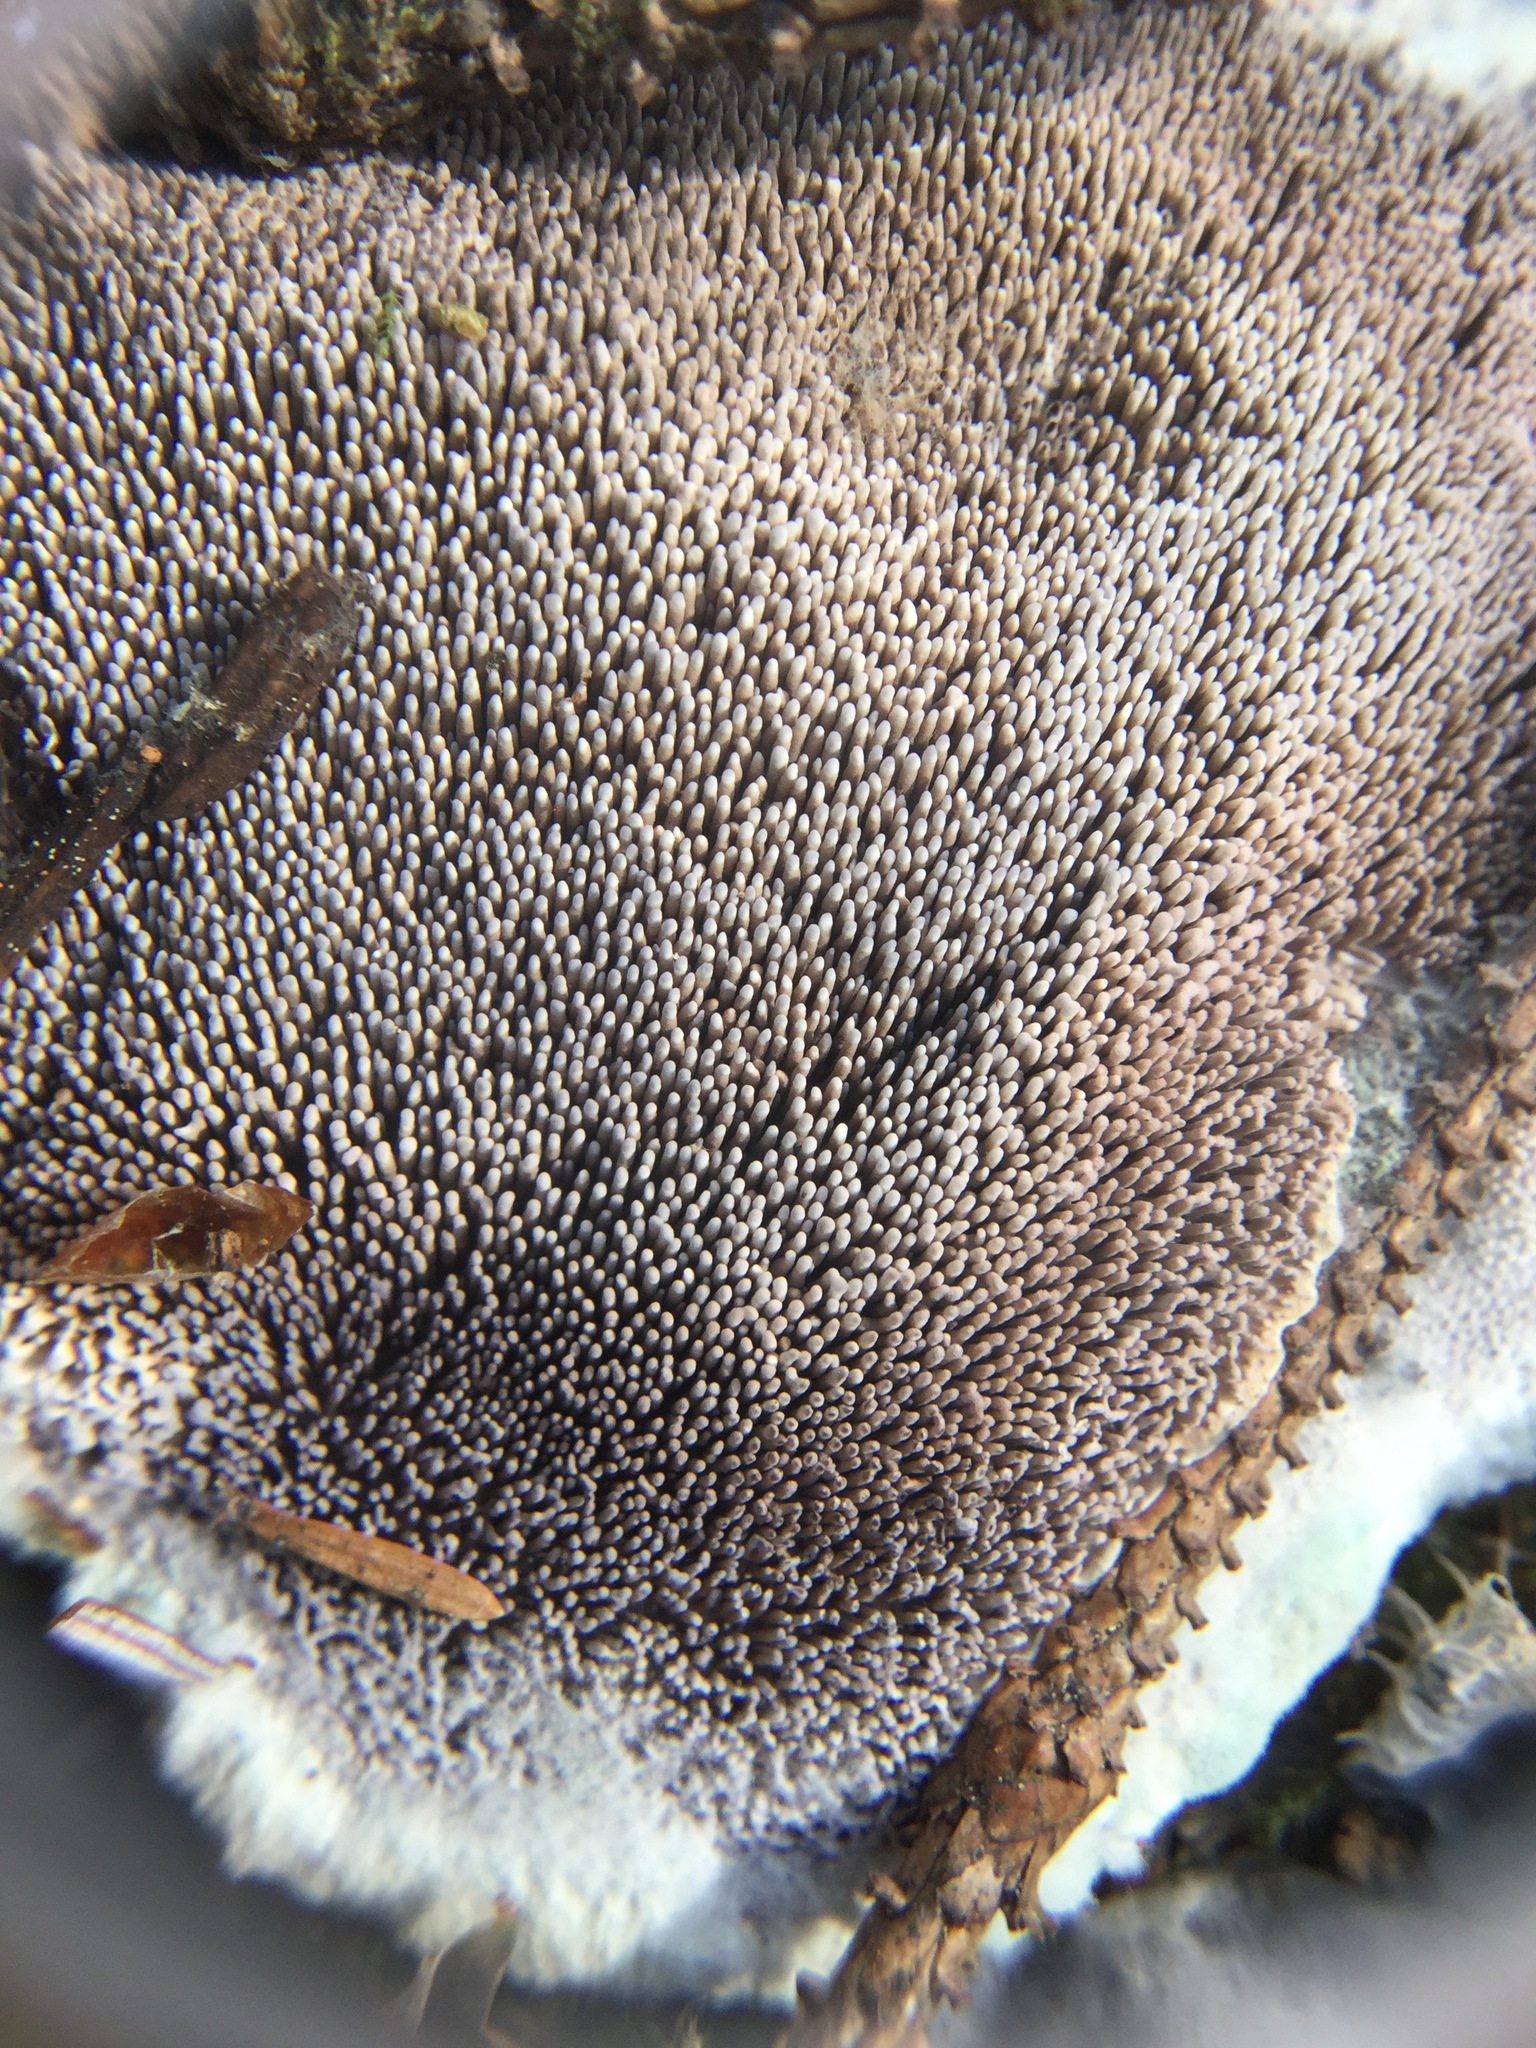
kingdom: Fungi
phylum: Basidiomycota
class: Agaricomycetes
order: Thelephorales
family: Bankeraceae
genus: Hydnellum
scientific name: Hydnellum cyanopodium
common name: Bleeding blue tooth
